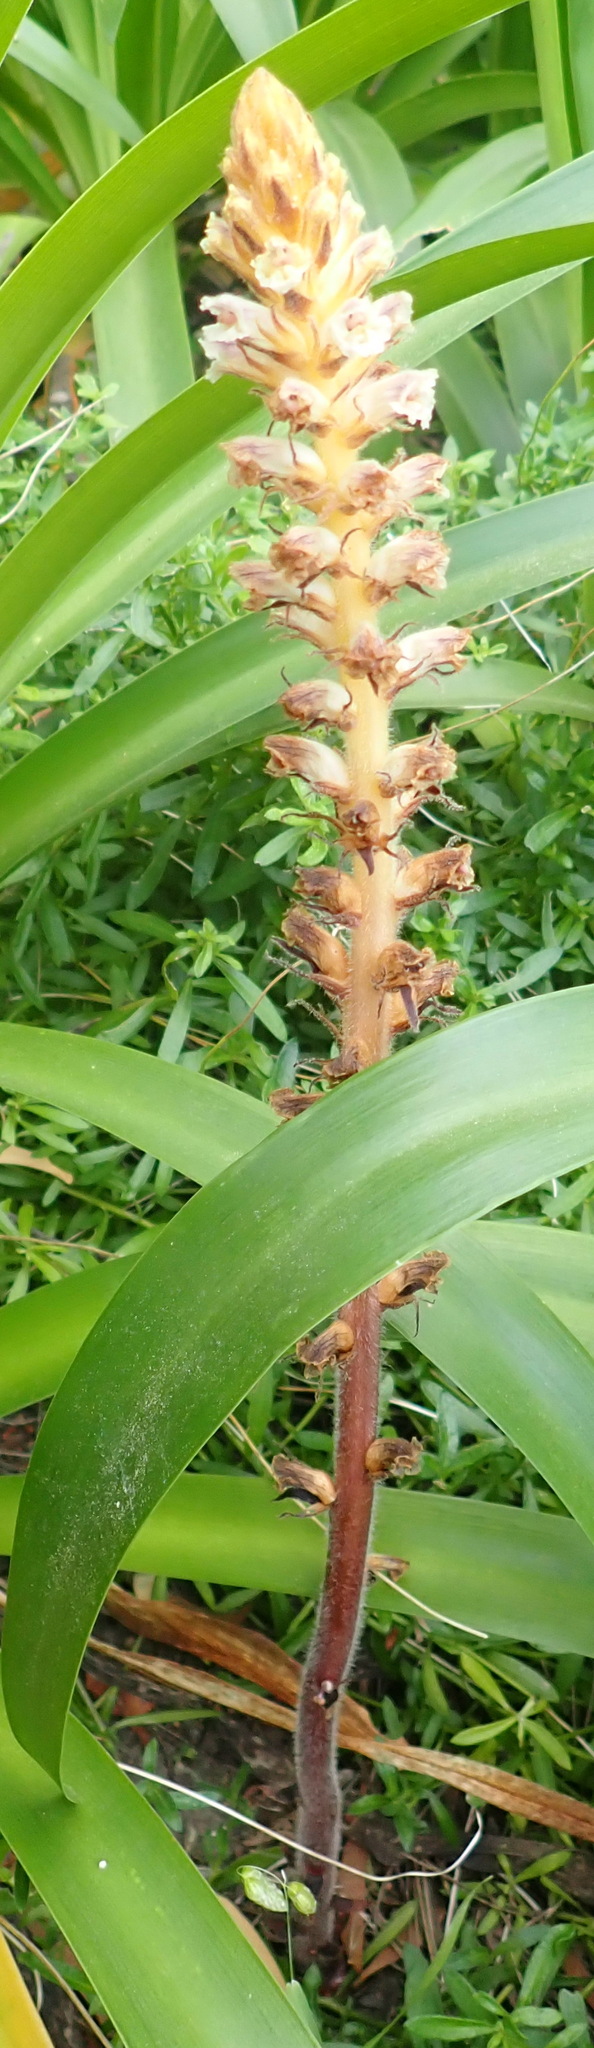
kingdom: Plantae
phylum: Tracheophyta
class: Magnoliopsida
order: Lamiales
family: Orobanchaceae
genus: Orobanche
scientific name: Orobanche minor
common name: Common broomrape
